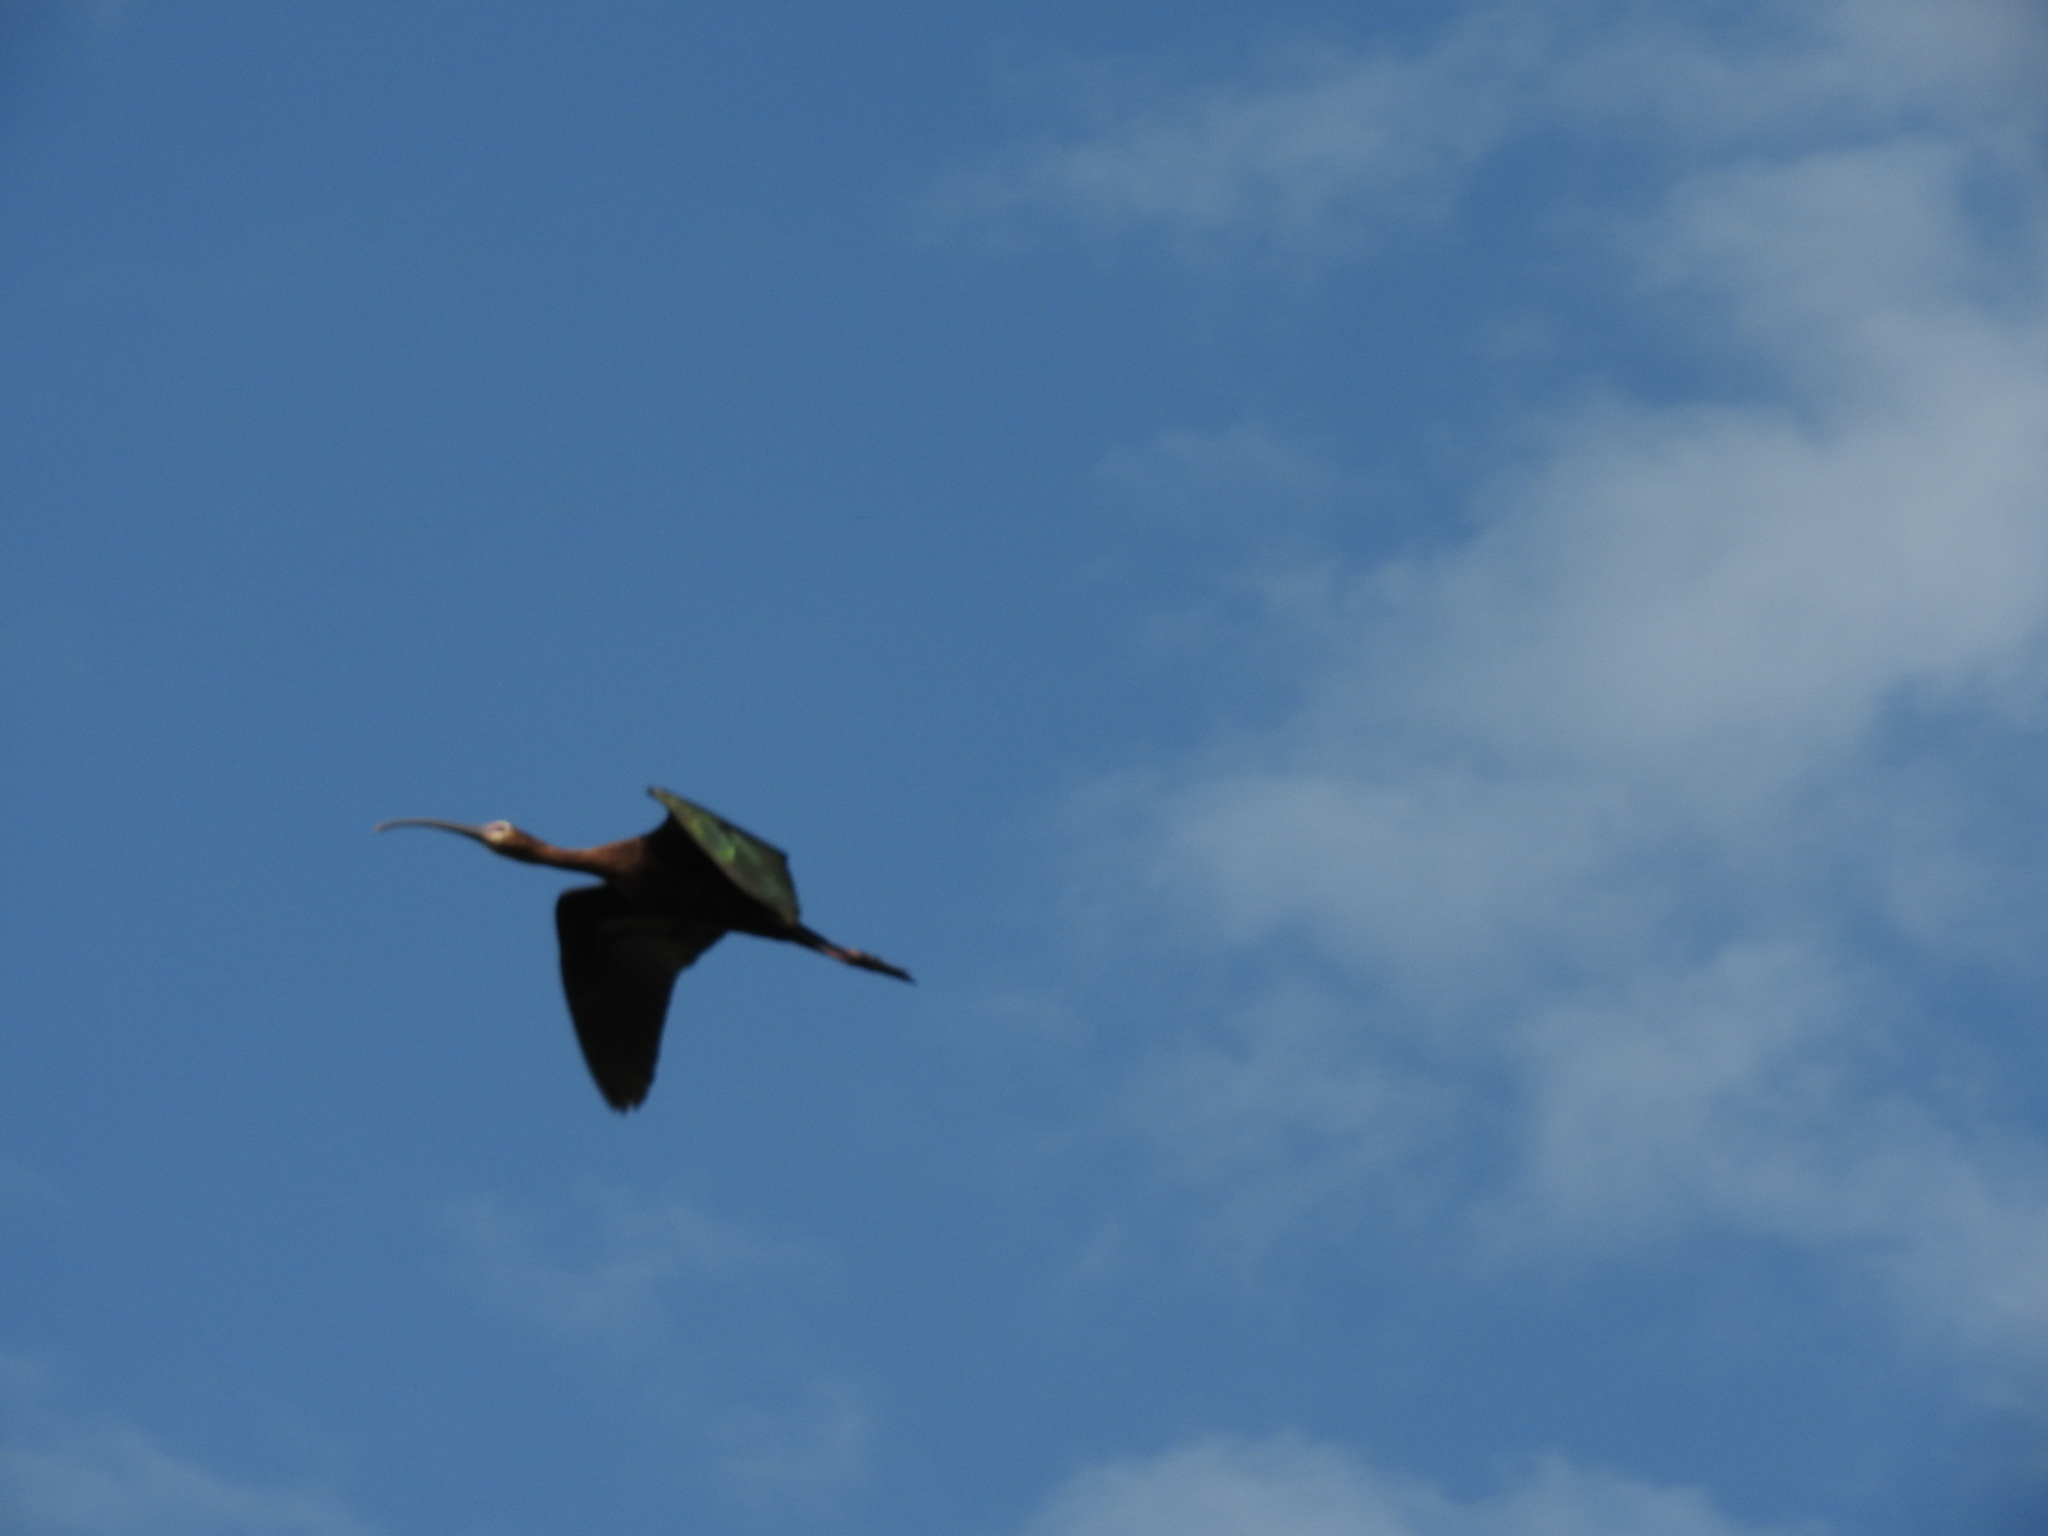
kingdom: Animalia
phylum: Chordata
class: Aves
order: Pelecaniformes
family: Threskiornithidae
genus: Plegadis
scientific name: Plegadis chihi
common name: White-faced ibis
